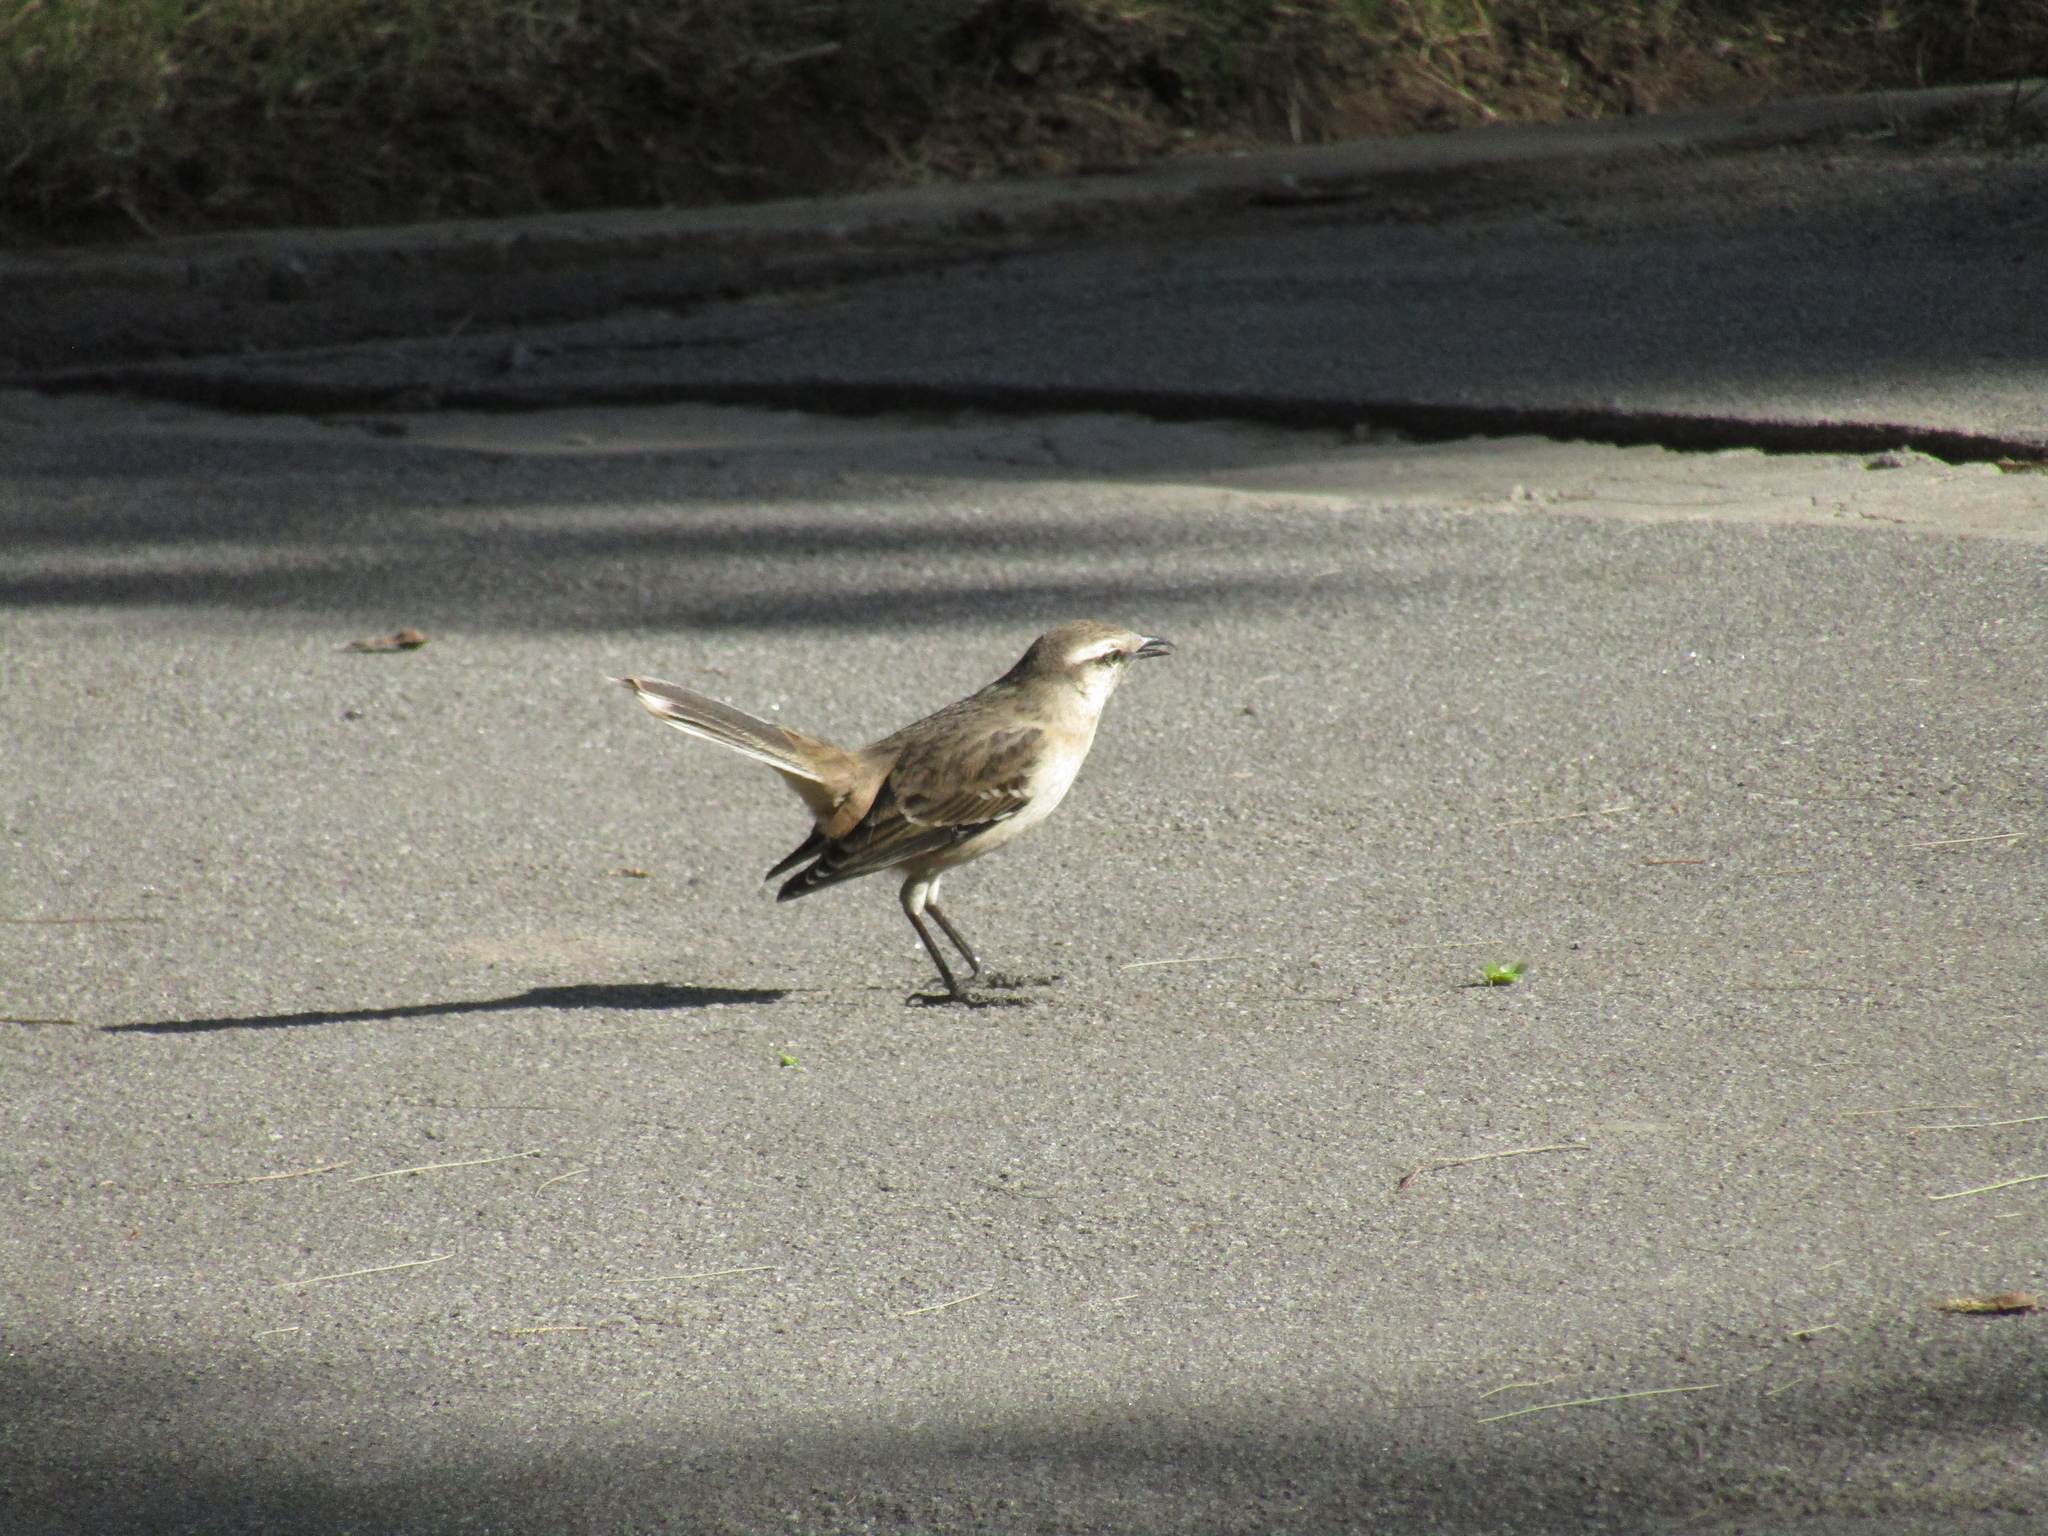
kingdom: Animalia
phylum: Chordata
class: Aves
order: Passeriformes
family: Mimidae
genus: Mimus
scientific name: Mimus saturninus
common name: Chalk-browed mockingbird
